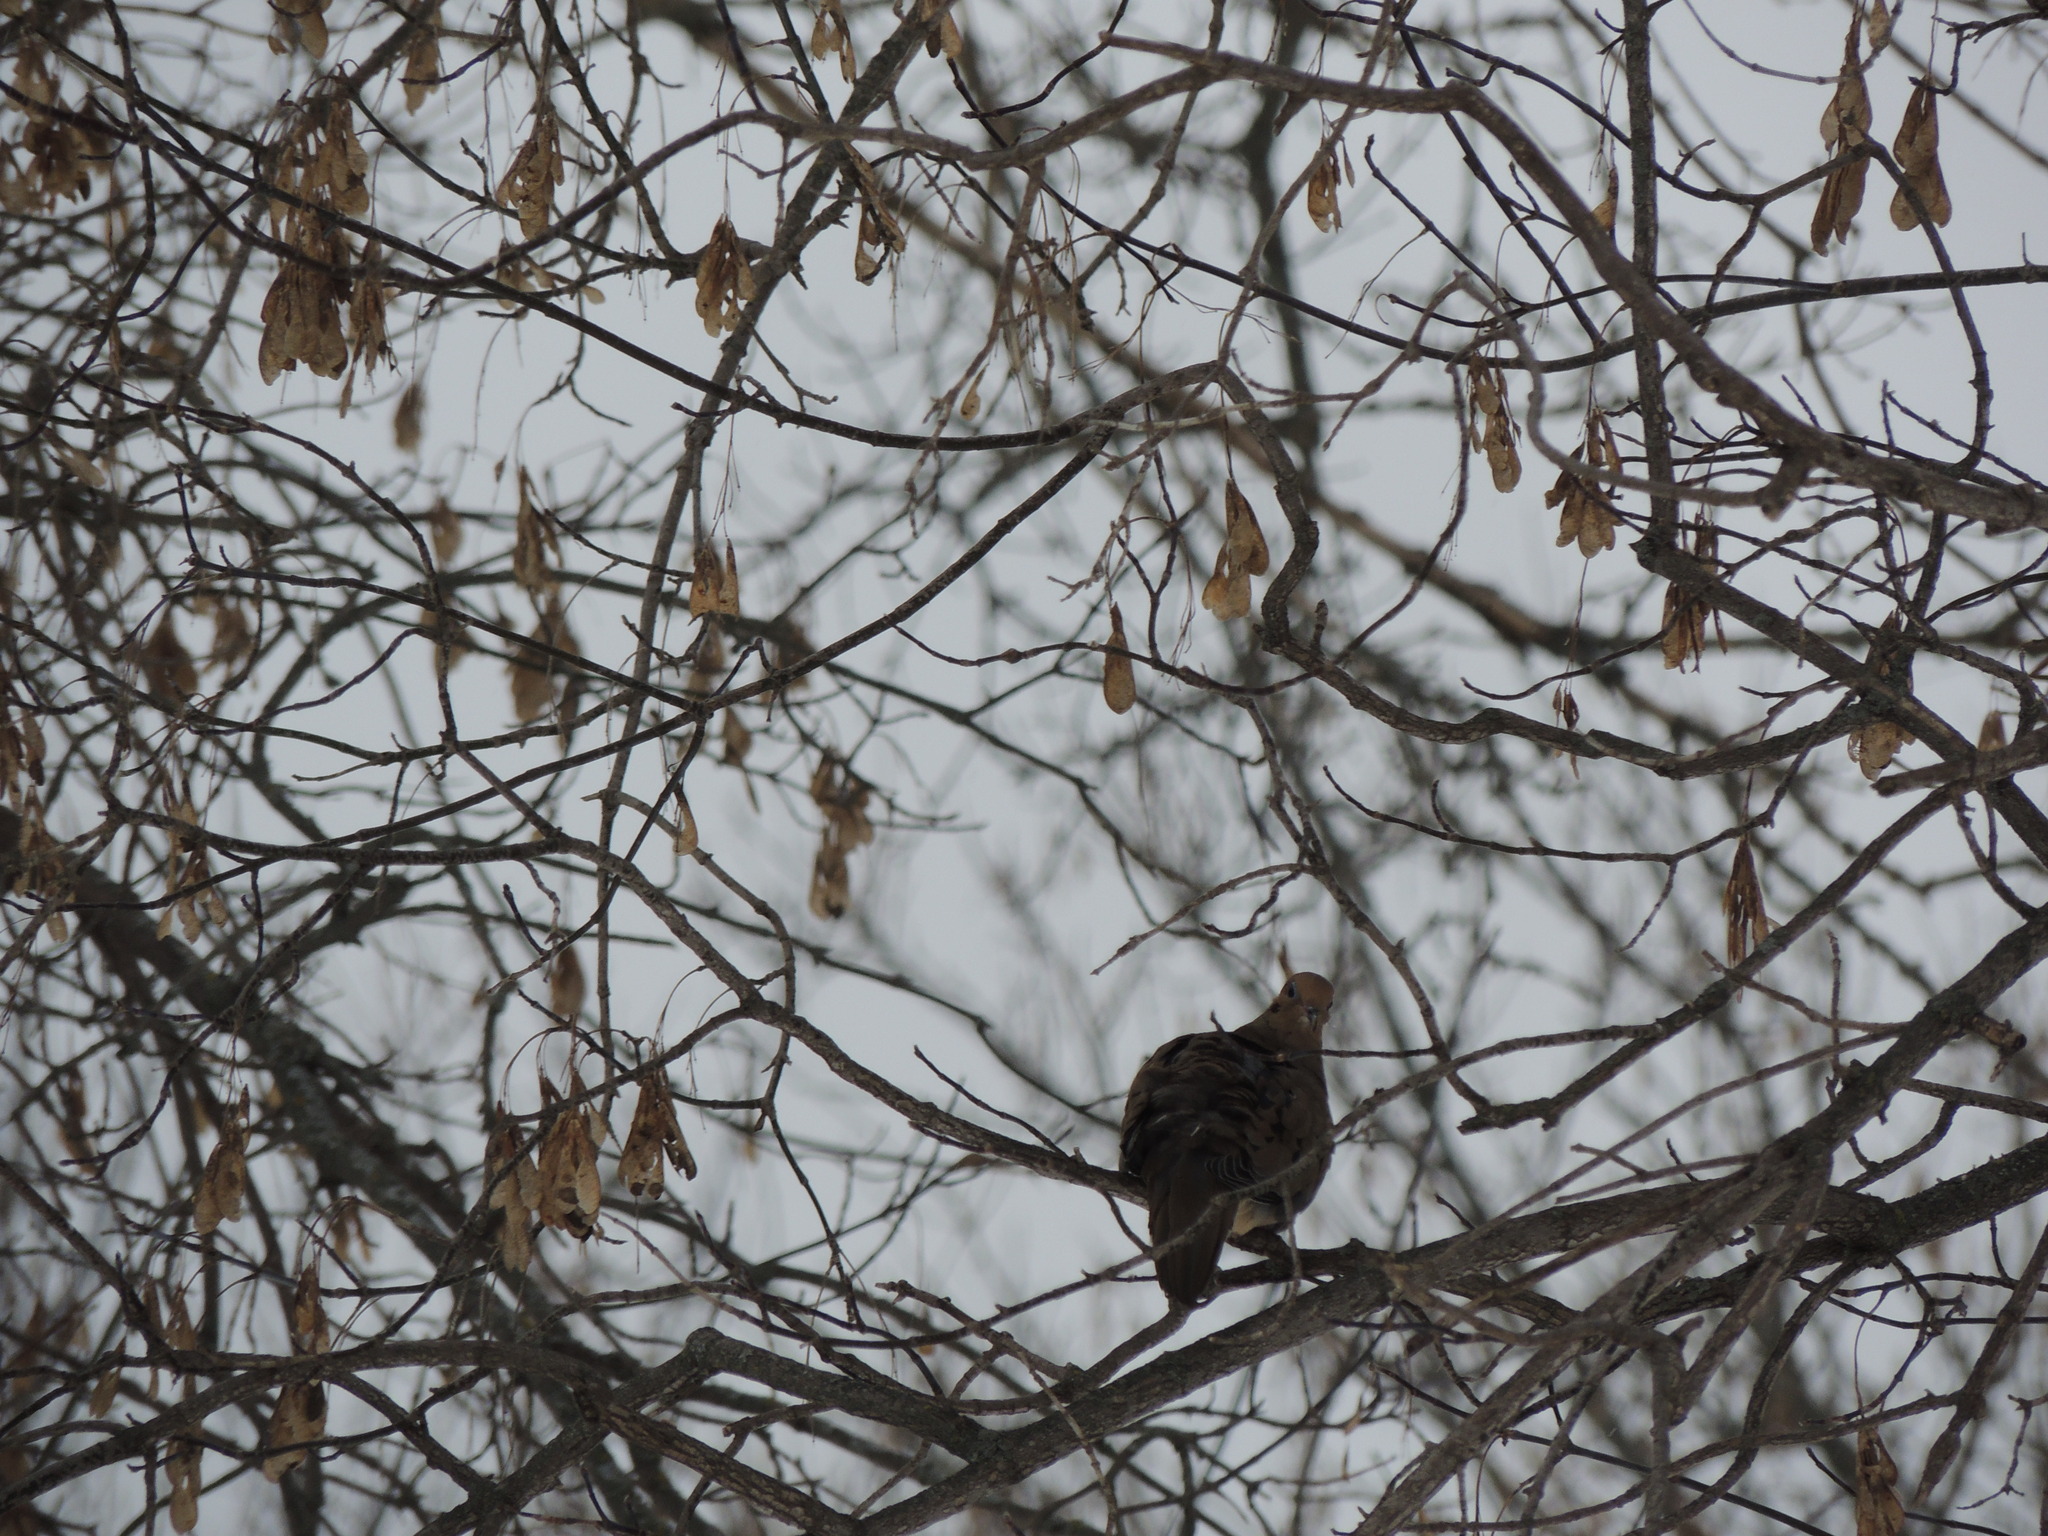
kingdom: Animalia
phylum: Chordata
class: Aves
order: Columbiformes
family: Columbidae
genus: Zenaida
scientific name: Zenaida macroura
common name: Mourning dove
